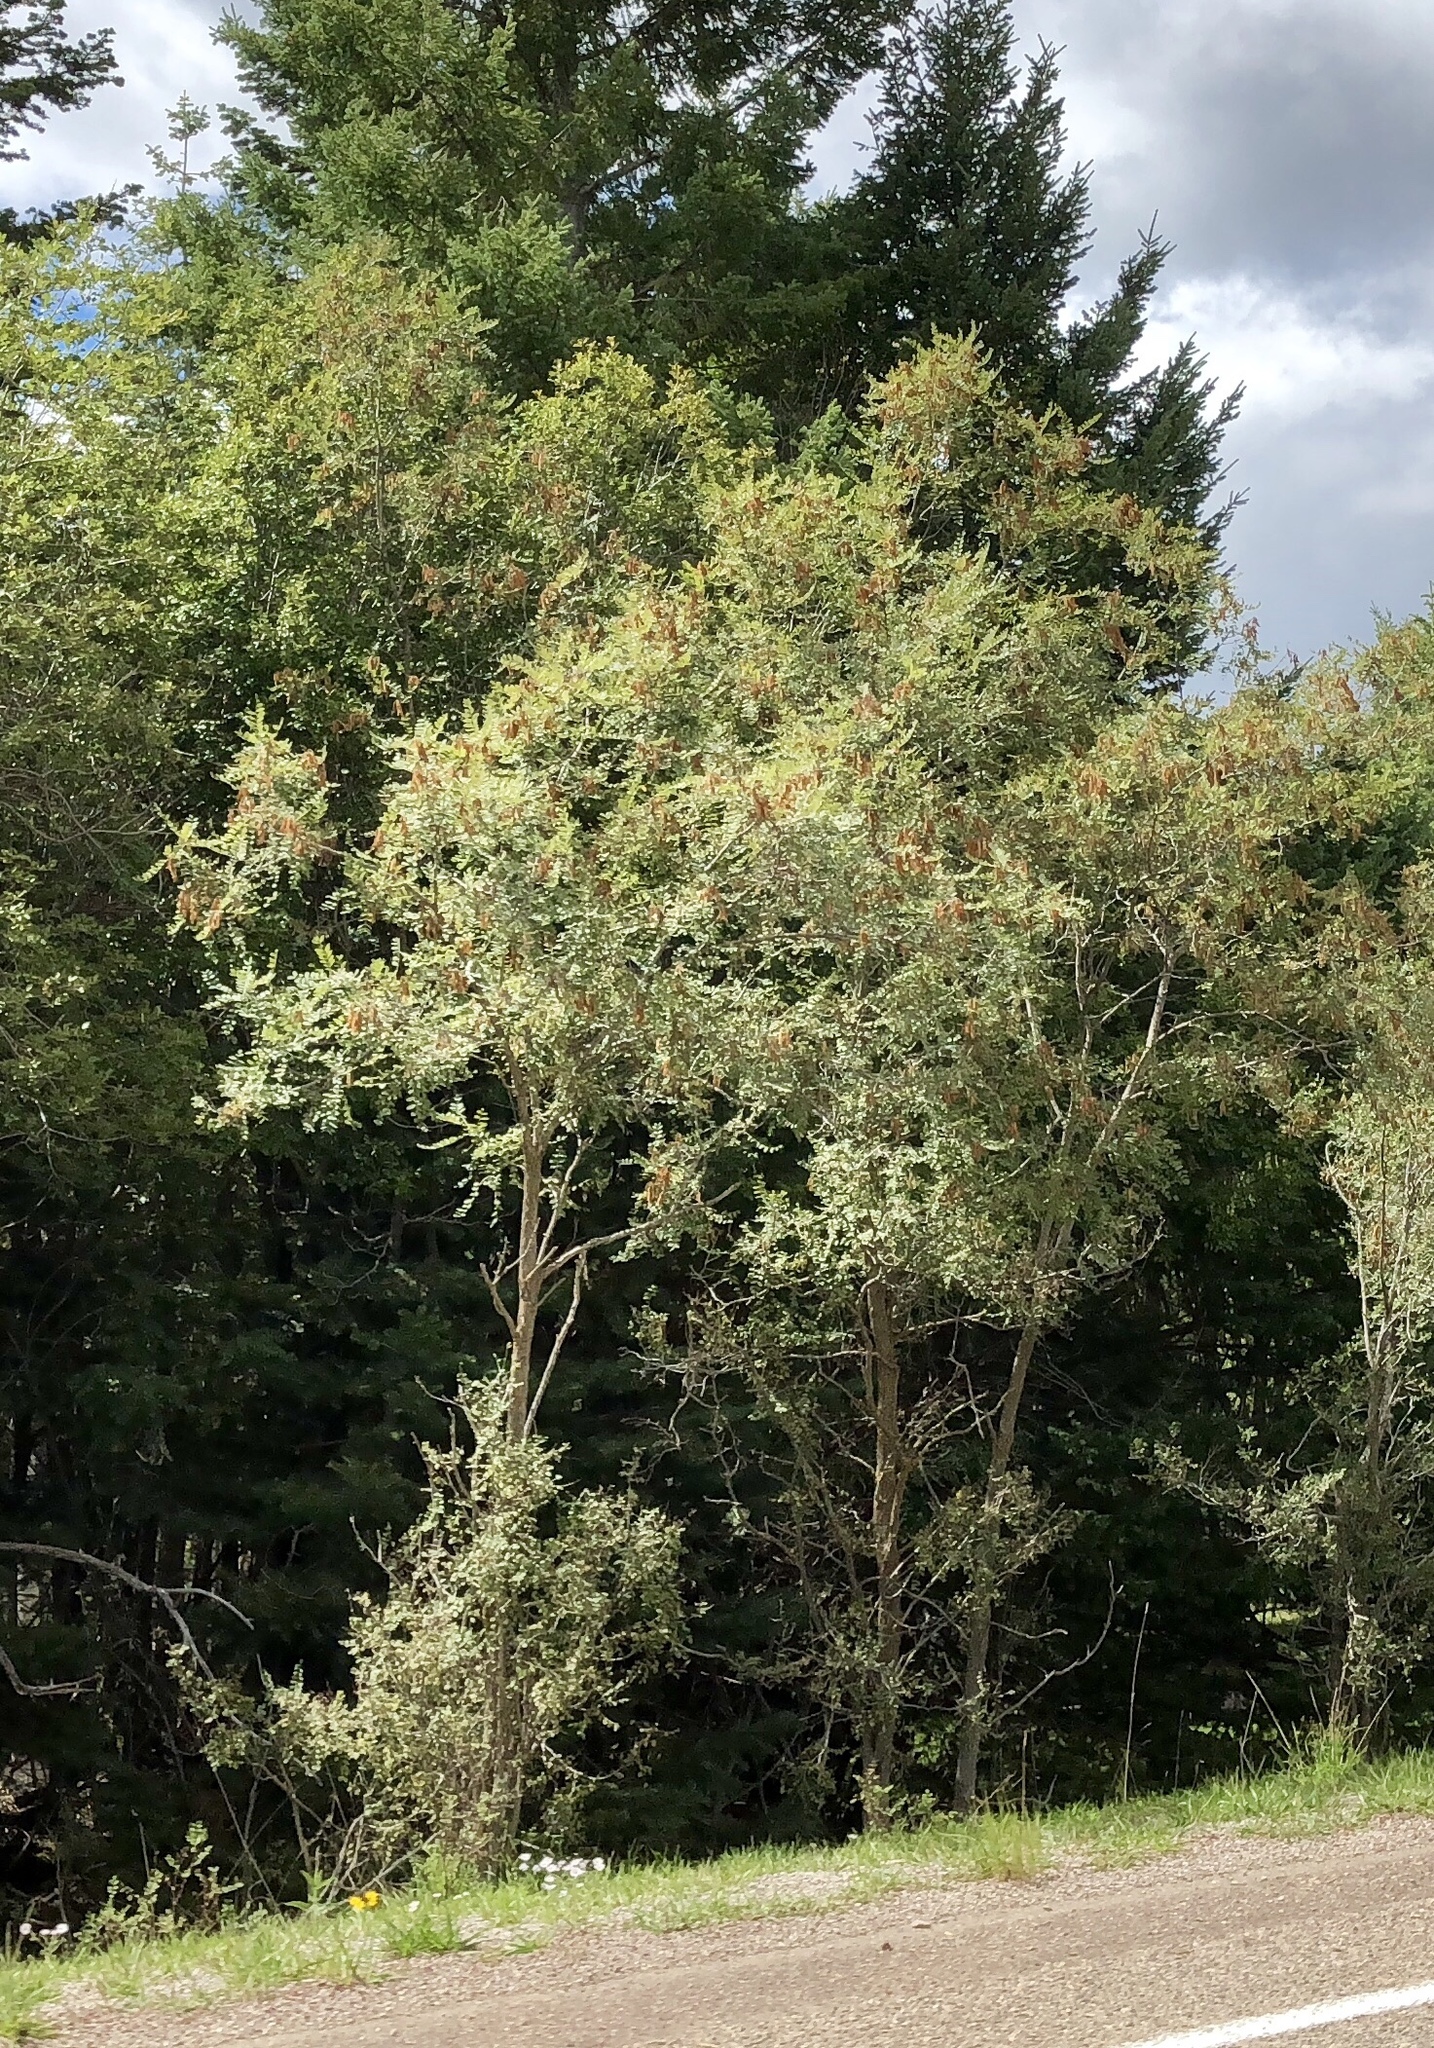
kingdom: Plantae
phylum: Tracheophyta
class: Magnoliopsida
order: Fabales
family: Fabaceae
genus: Robinia
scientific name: Robinia neomexicana
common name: New mexico locust
